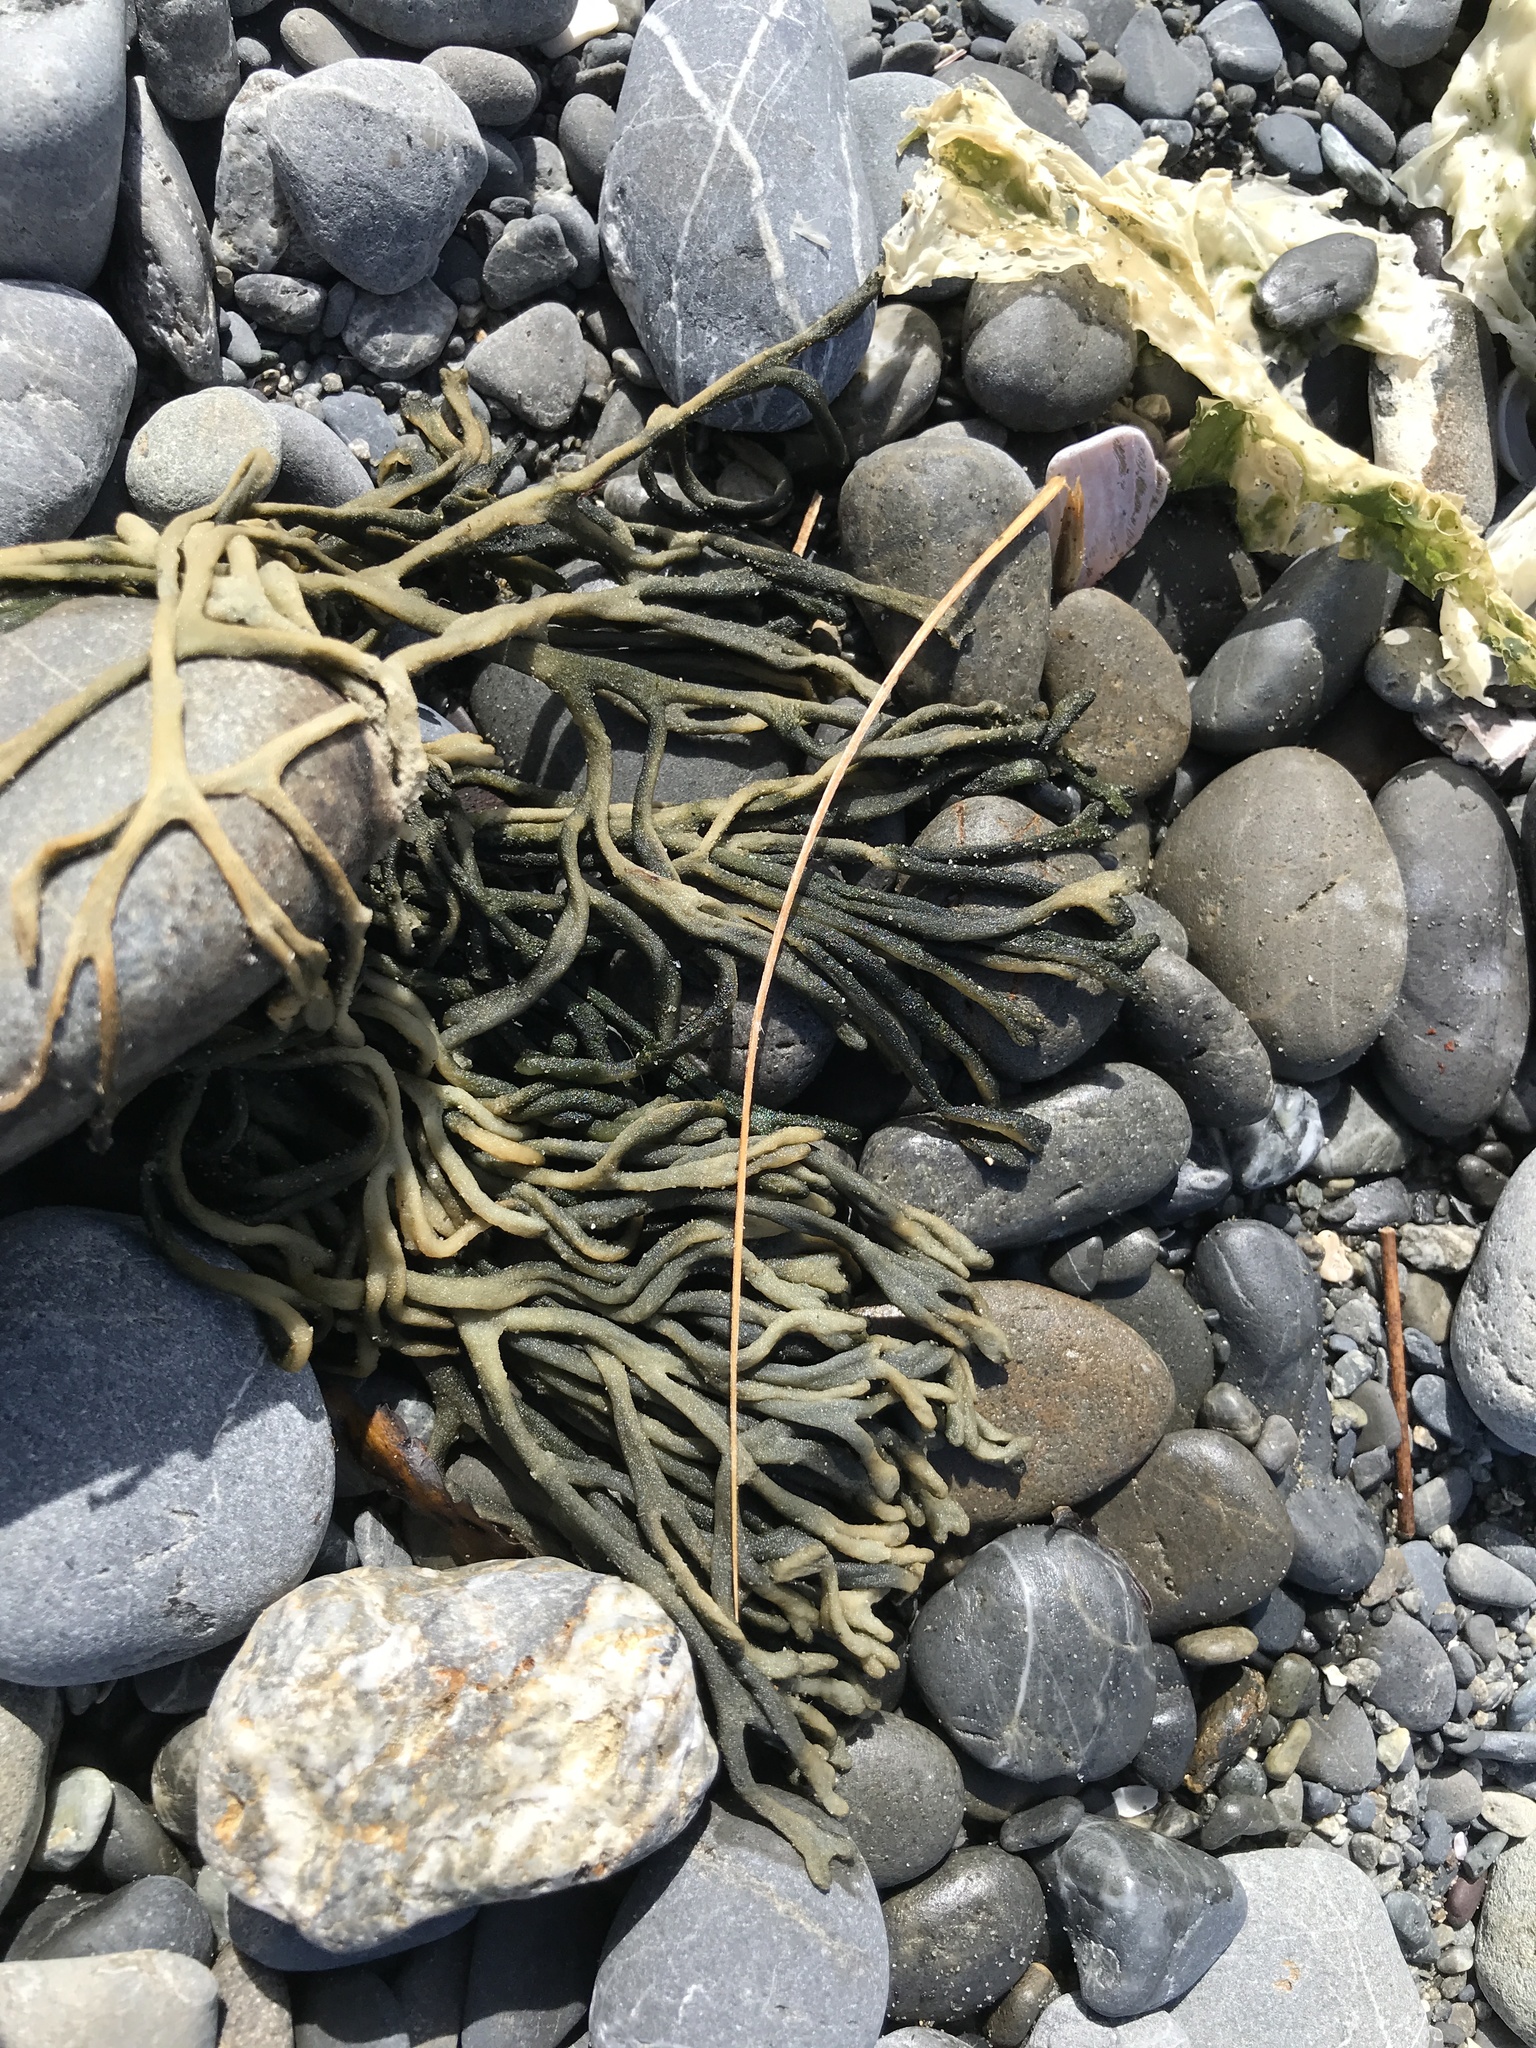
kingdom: Plantae
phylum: Chlorophyta
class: Ulvophyceae
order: Bryopsidales
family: Codiaceae
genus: Codium
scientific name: Codium fragile
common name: Dead man's fingers
